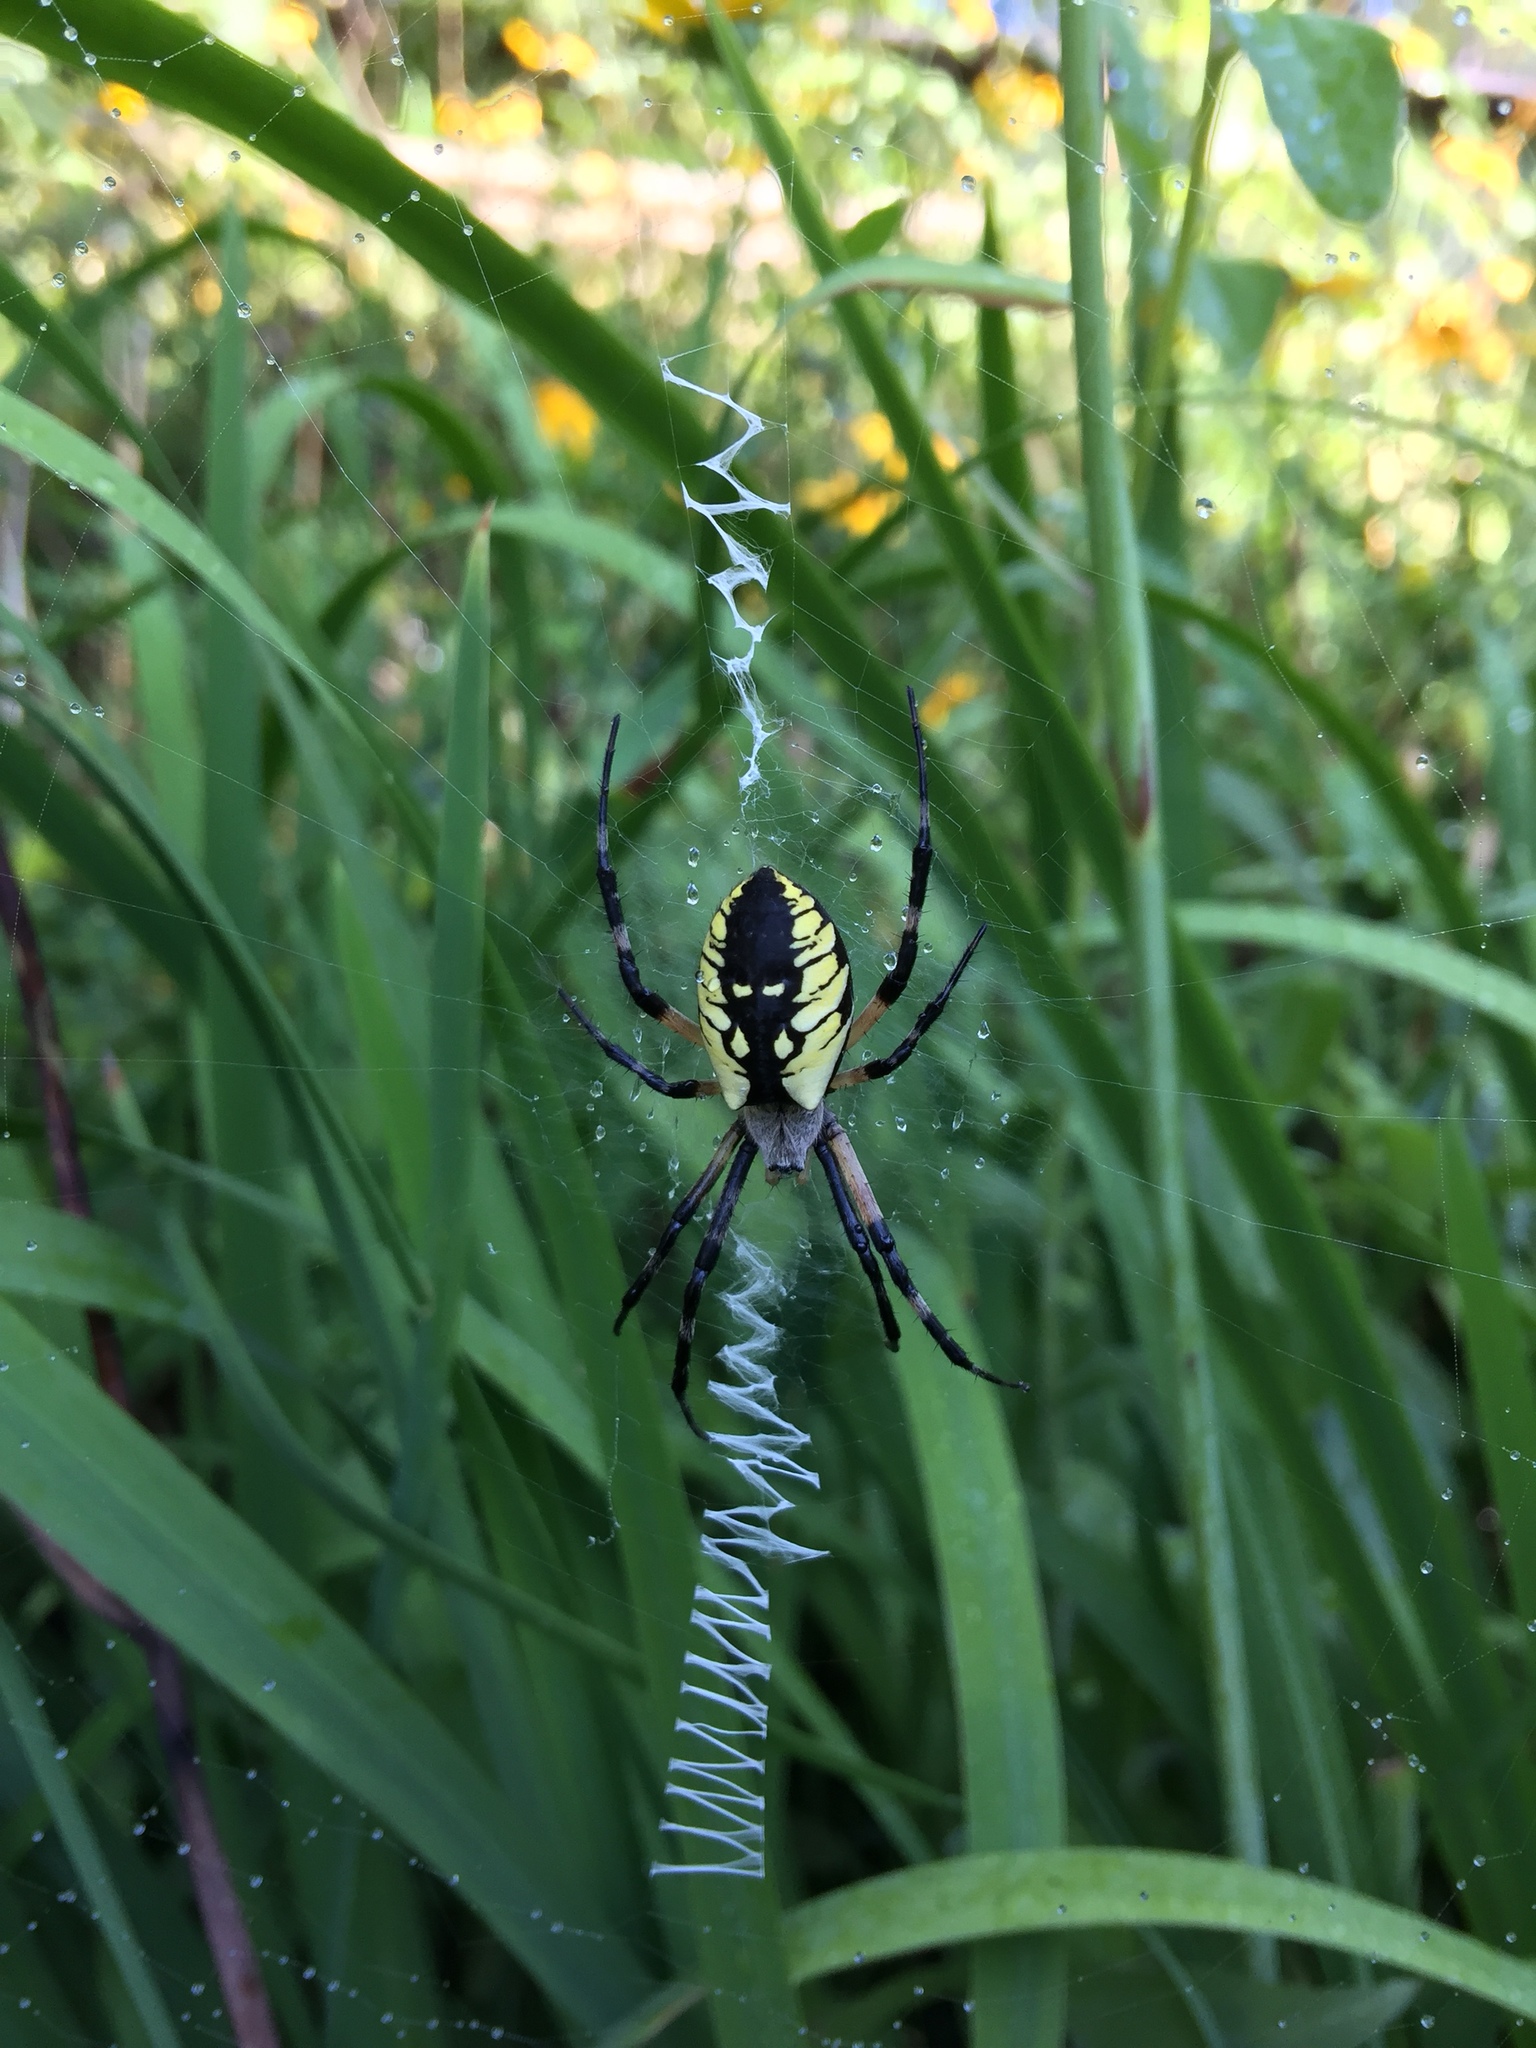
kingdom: Animalia
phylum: Arthropoda
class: Arachnida
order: Araneae
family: Araneidae
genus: Argiope
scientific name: Argiope aurantia
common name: Orb weavers
